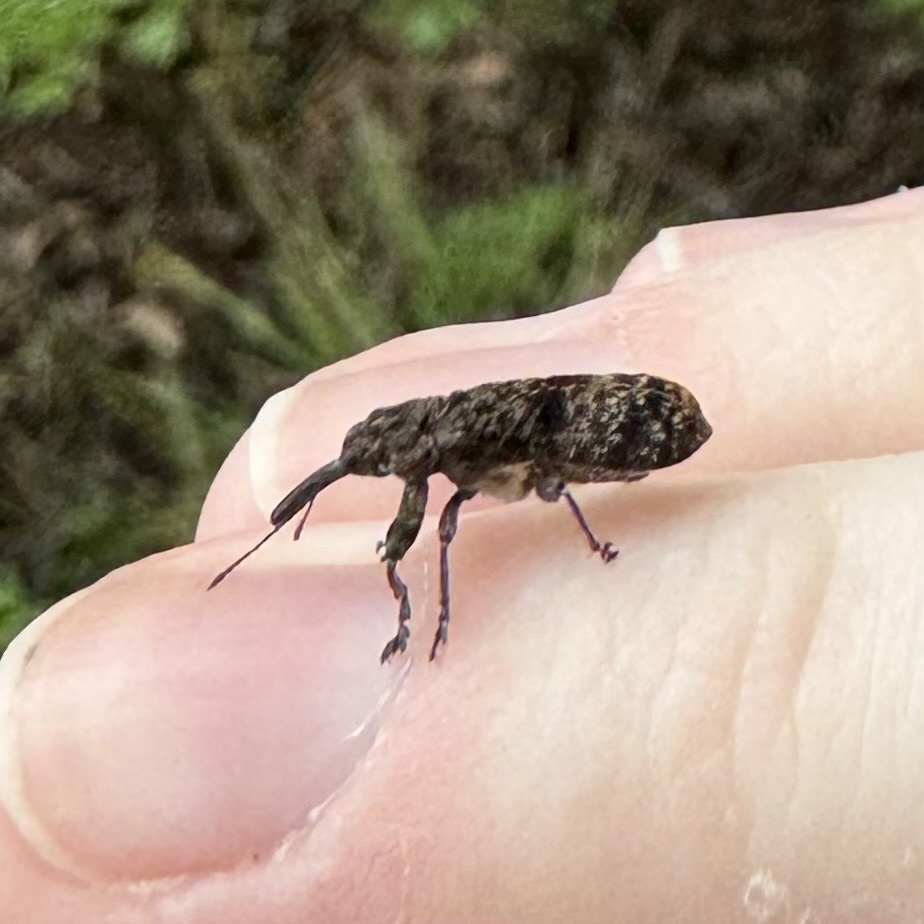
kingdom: Animalia
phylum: Arthropoda
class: Insecta
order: Coleoptera
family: Belidae
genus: Rhinotia
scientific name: Rhinotia dermestiventris
